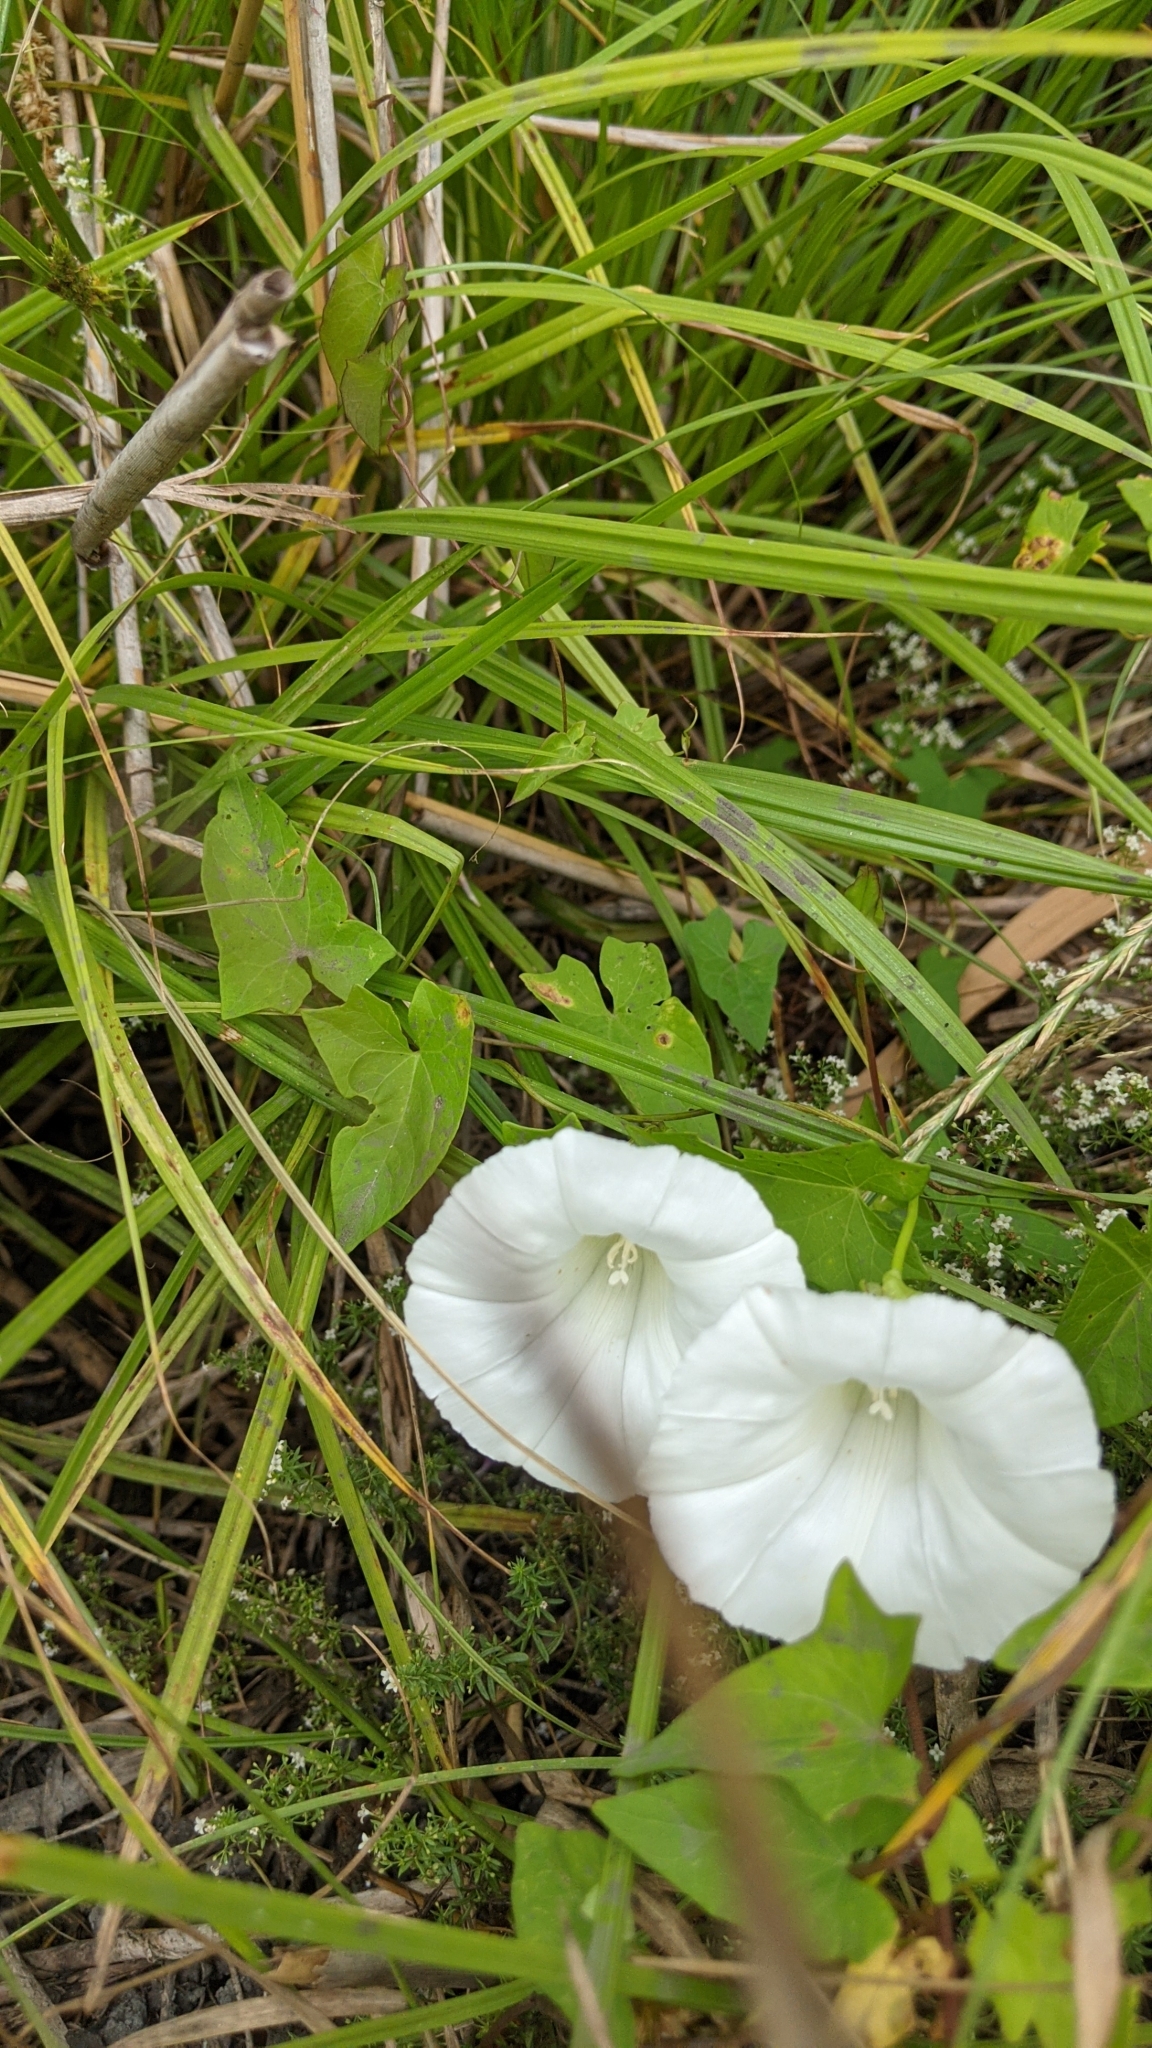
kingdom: Plantae
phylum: Tracheophyta
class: Magnoliopsida
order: Solanales
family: Convolvulaceae
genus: Calystegia
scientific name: Calystegia sepium
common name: Hedge bindweed
